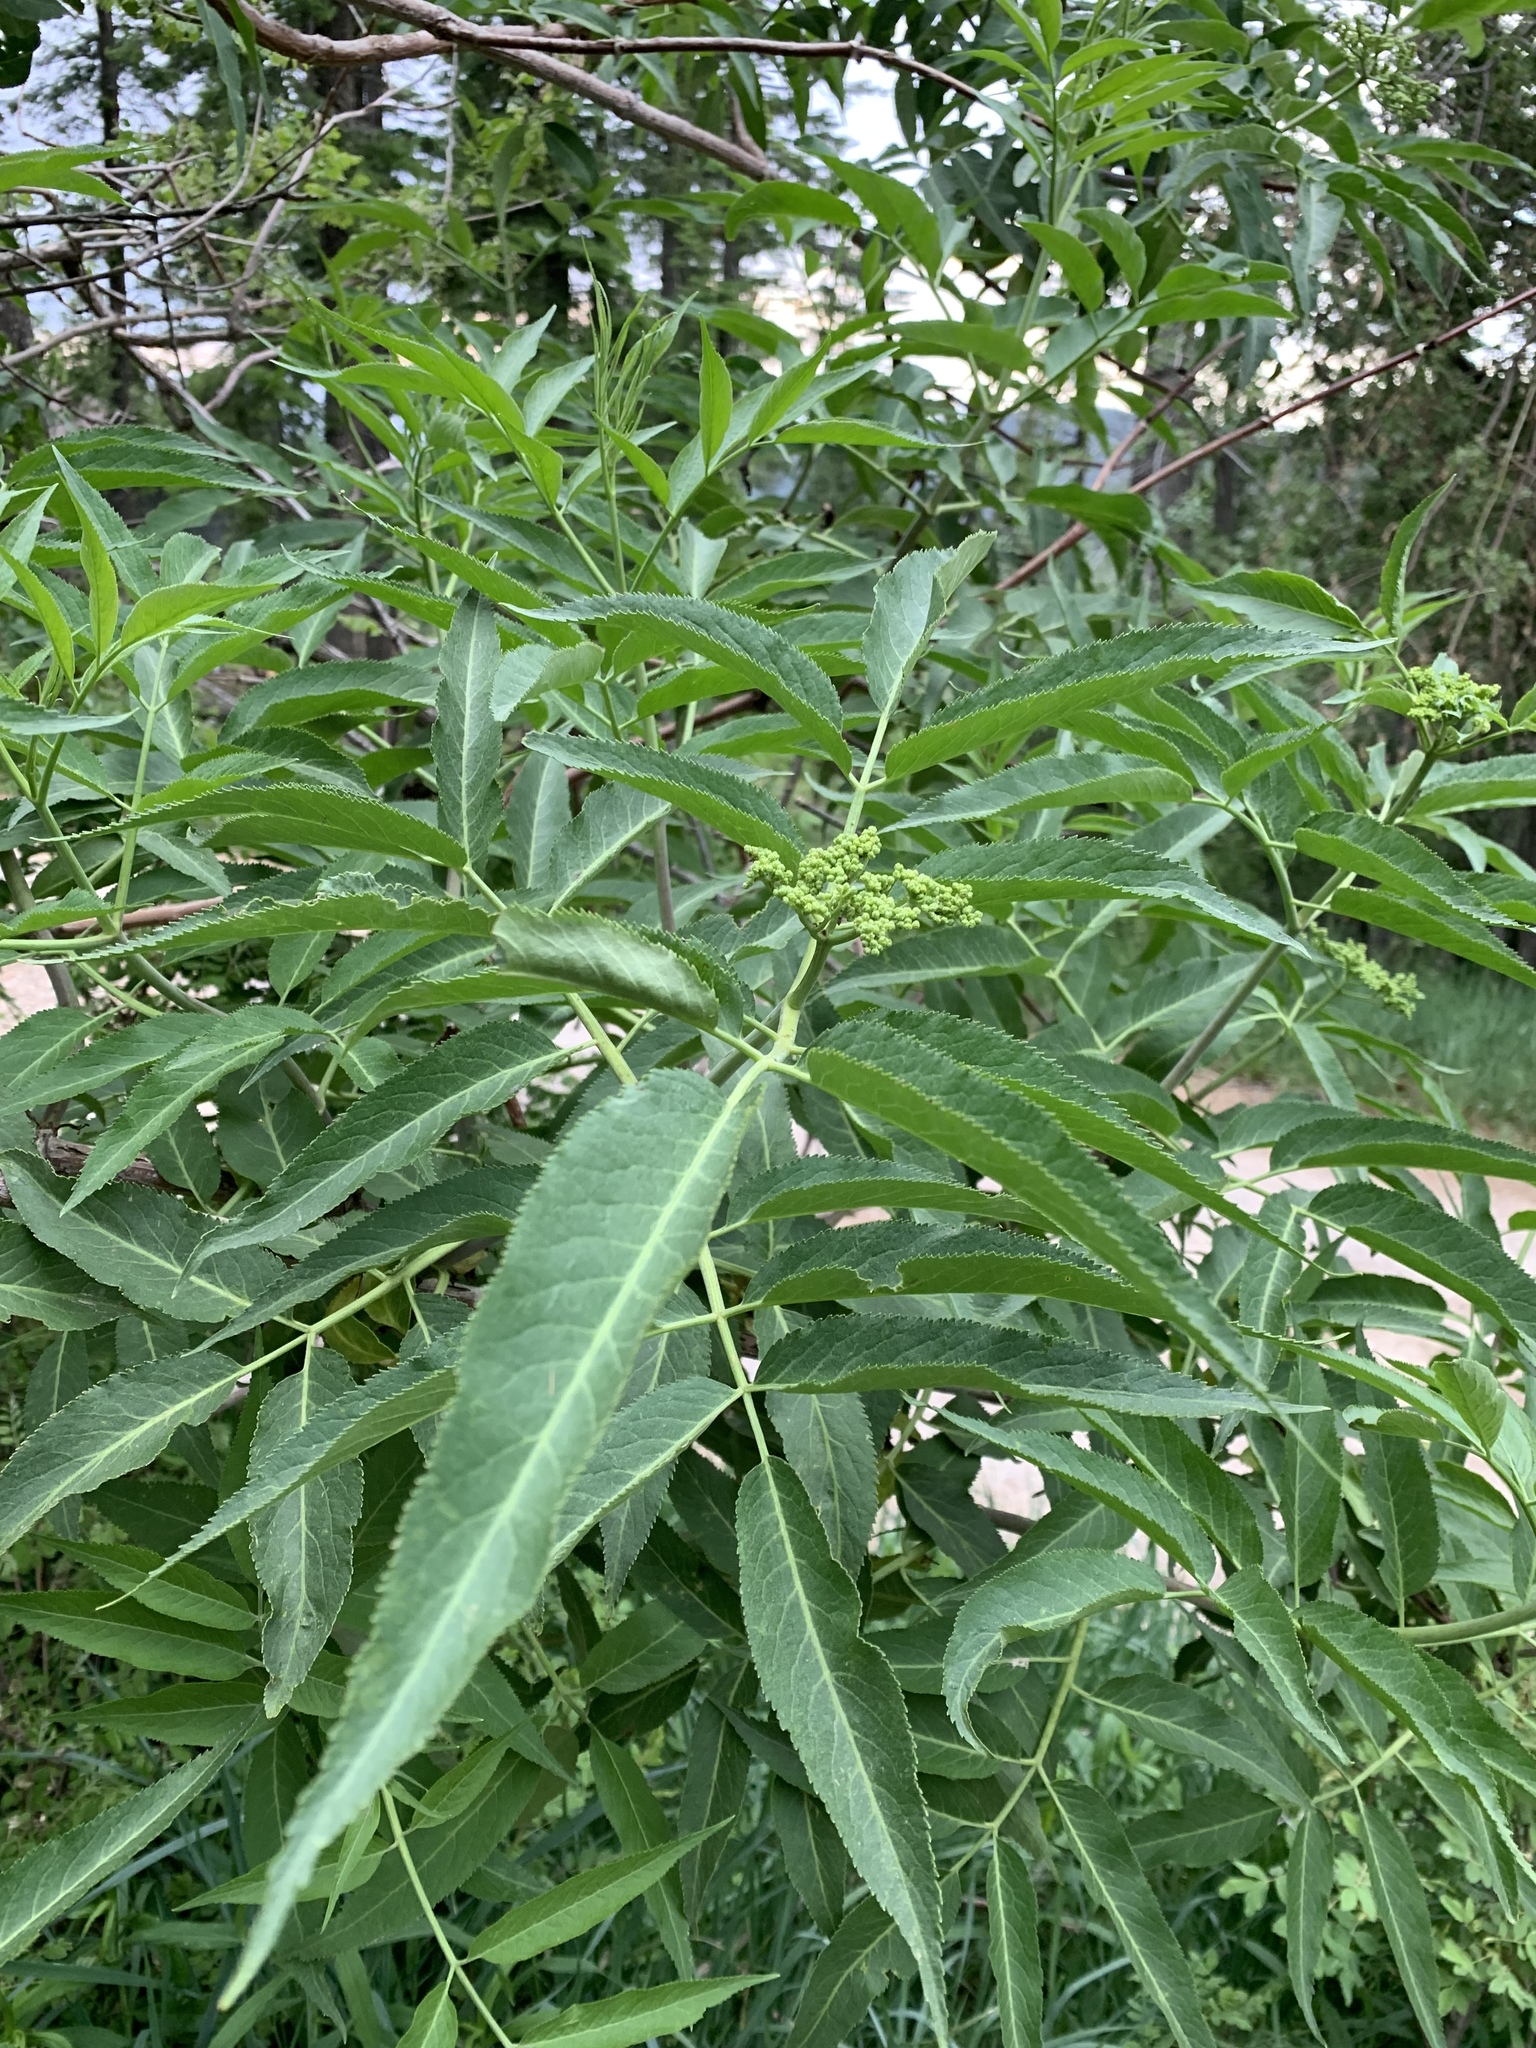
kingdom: Plantae
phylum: Tracheophyta
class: Magnoliopsida
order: Dipsacales
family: Viburnaceae
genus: Sambucus
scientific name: Sambucus cerulea
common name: Blue elder
